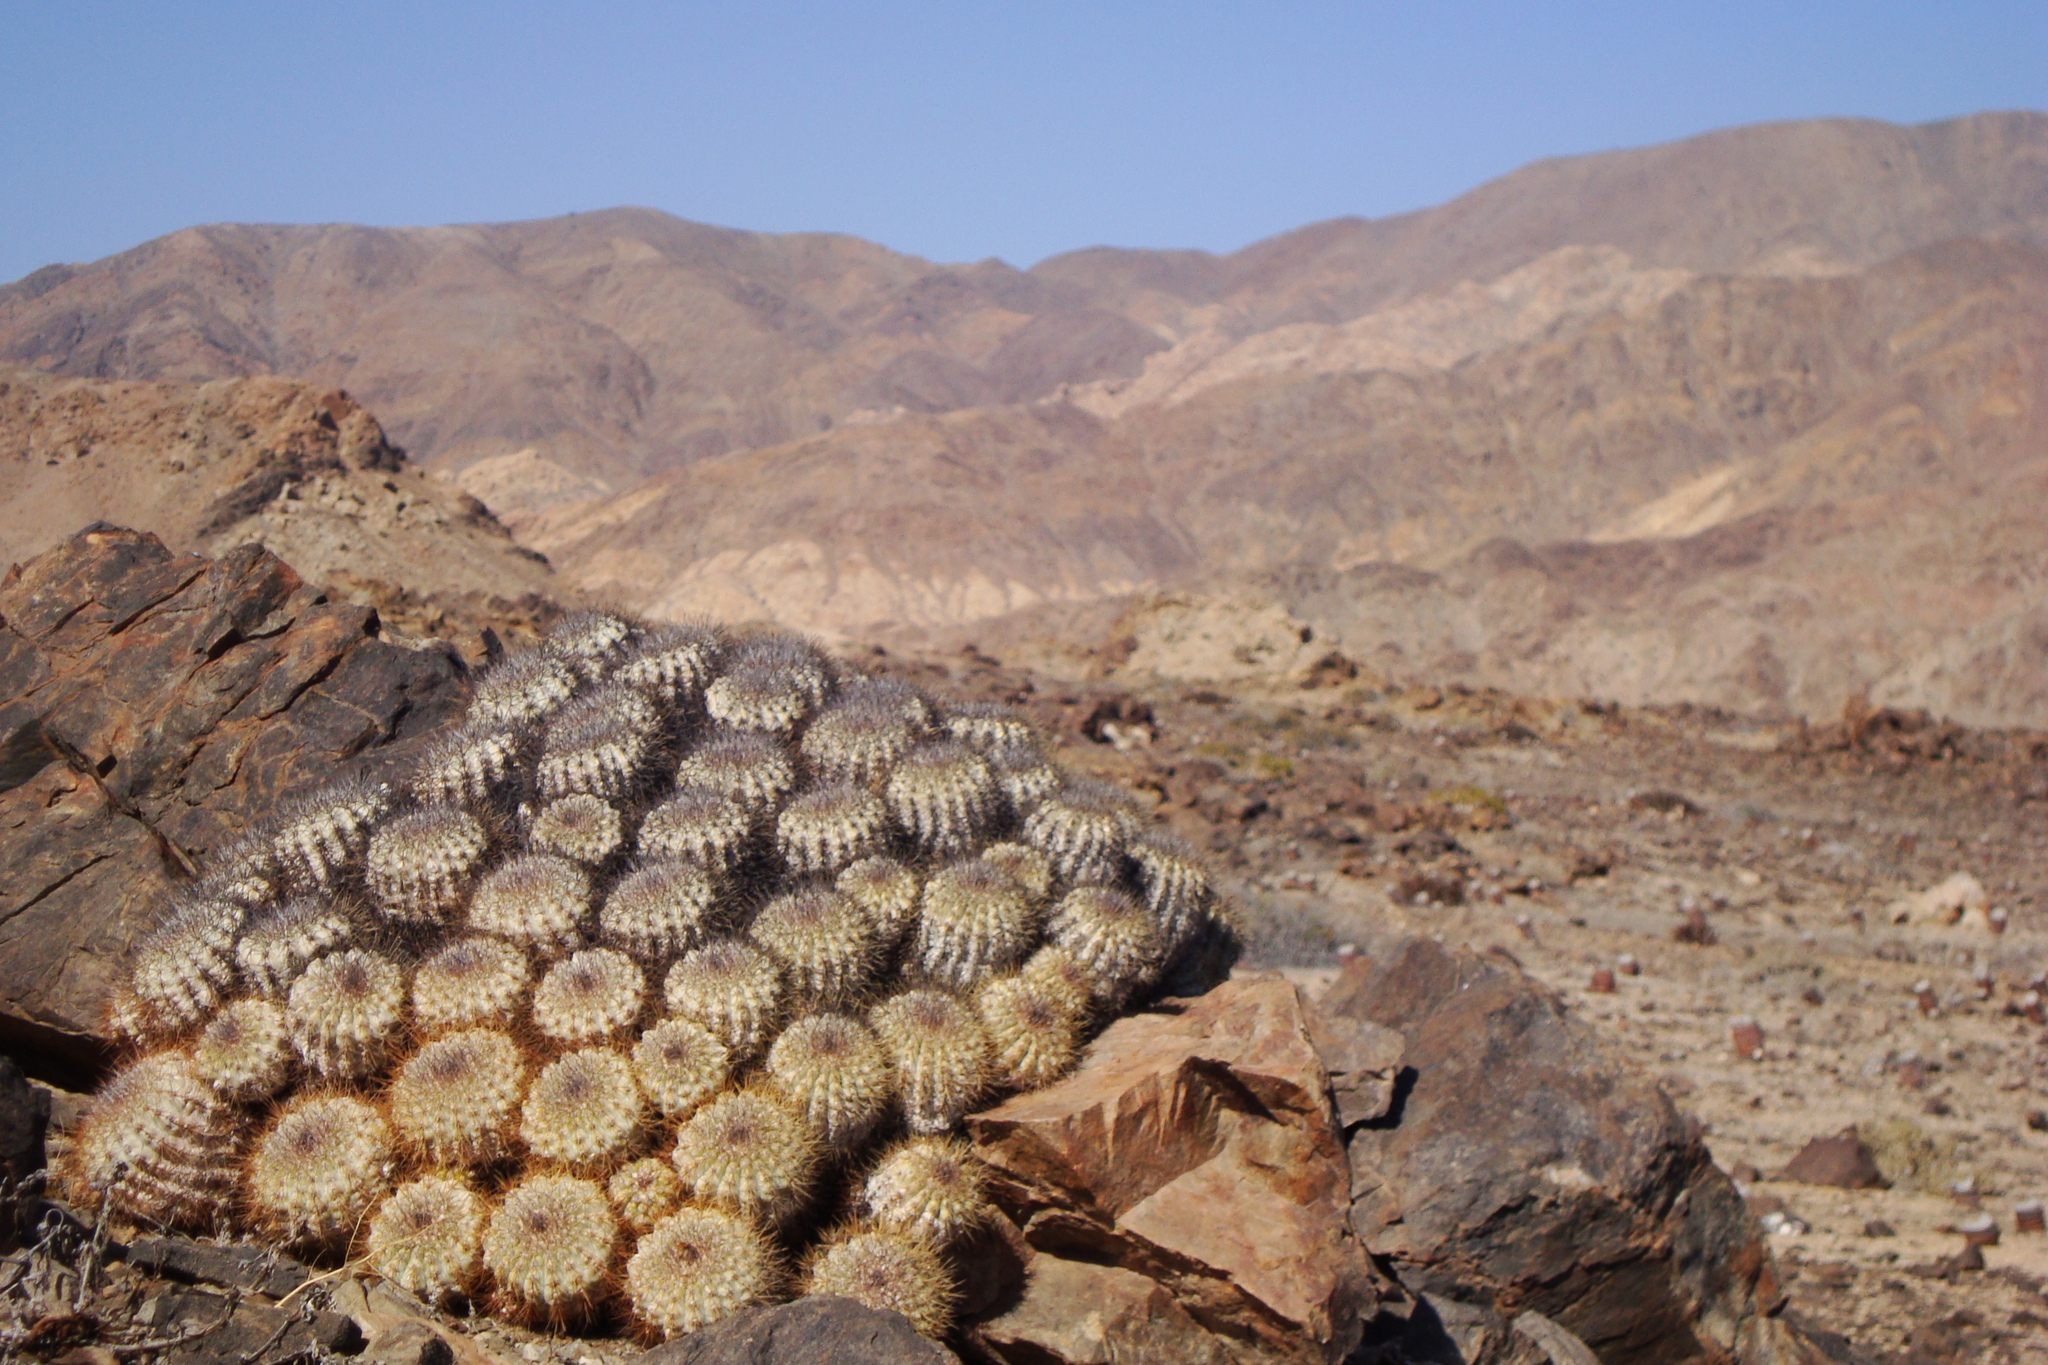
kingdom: Plantae
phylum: Tracheophyta
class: Magnoliopsida
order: Caryophyllales
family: Cactaceae
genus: Copiapoa
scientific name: Copiapoa grandiflora
